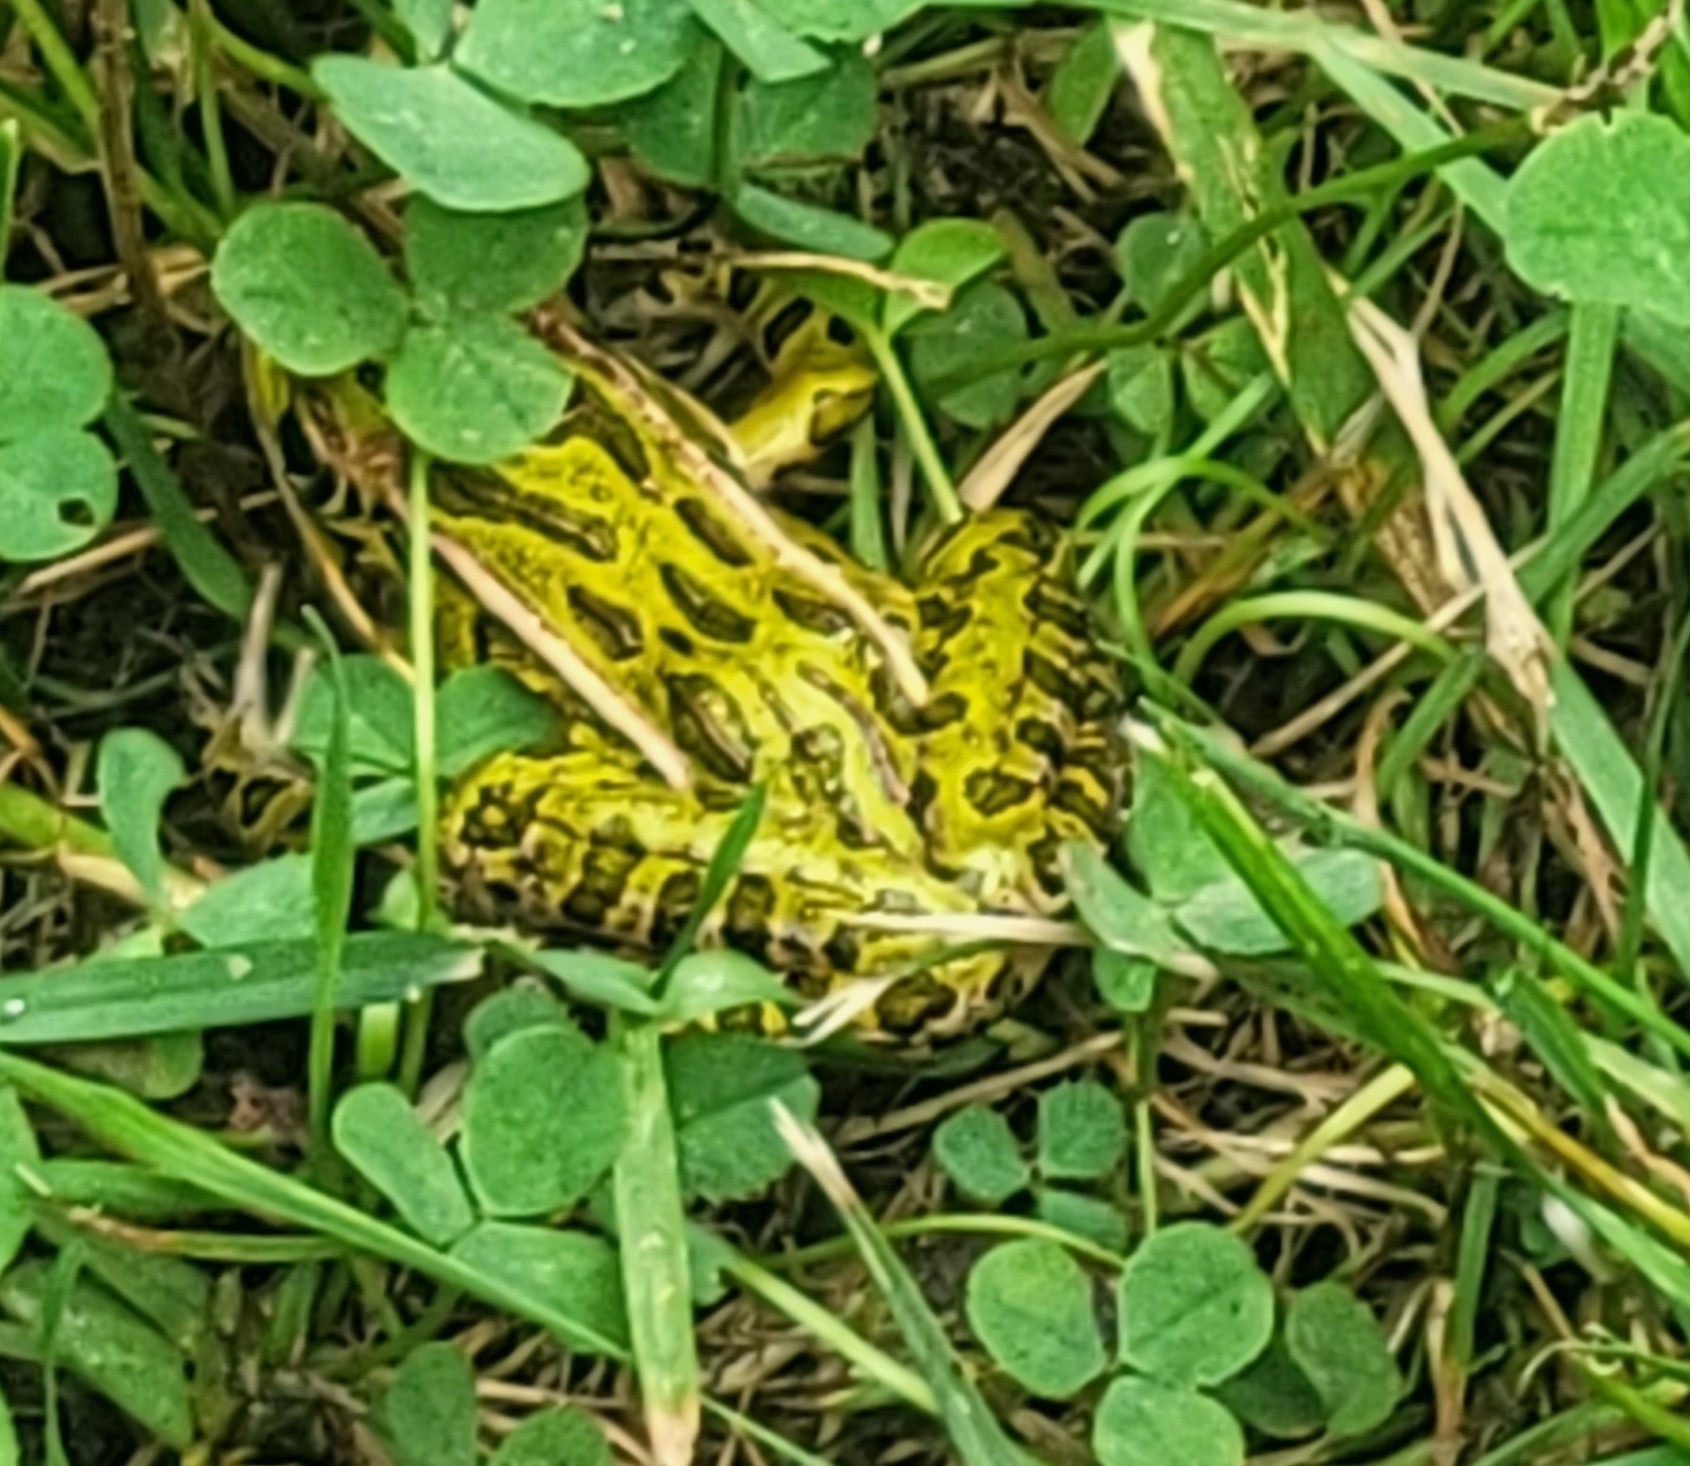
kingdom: Animalia
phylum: Chordata
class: Amphibia
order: Anura
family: Ranidae
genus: Lithobates
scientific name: Lithobates pipiens
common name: Northern leopard frog
